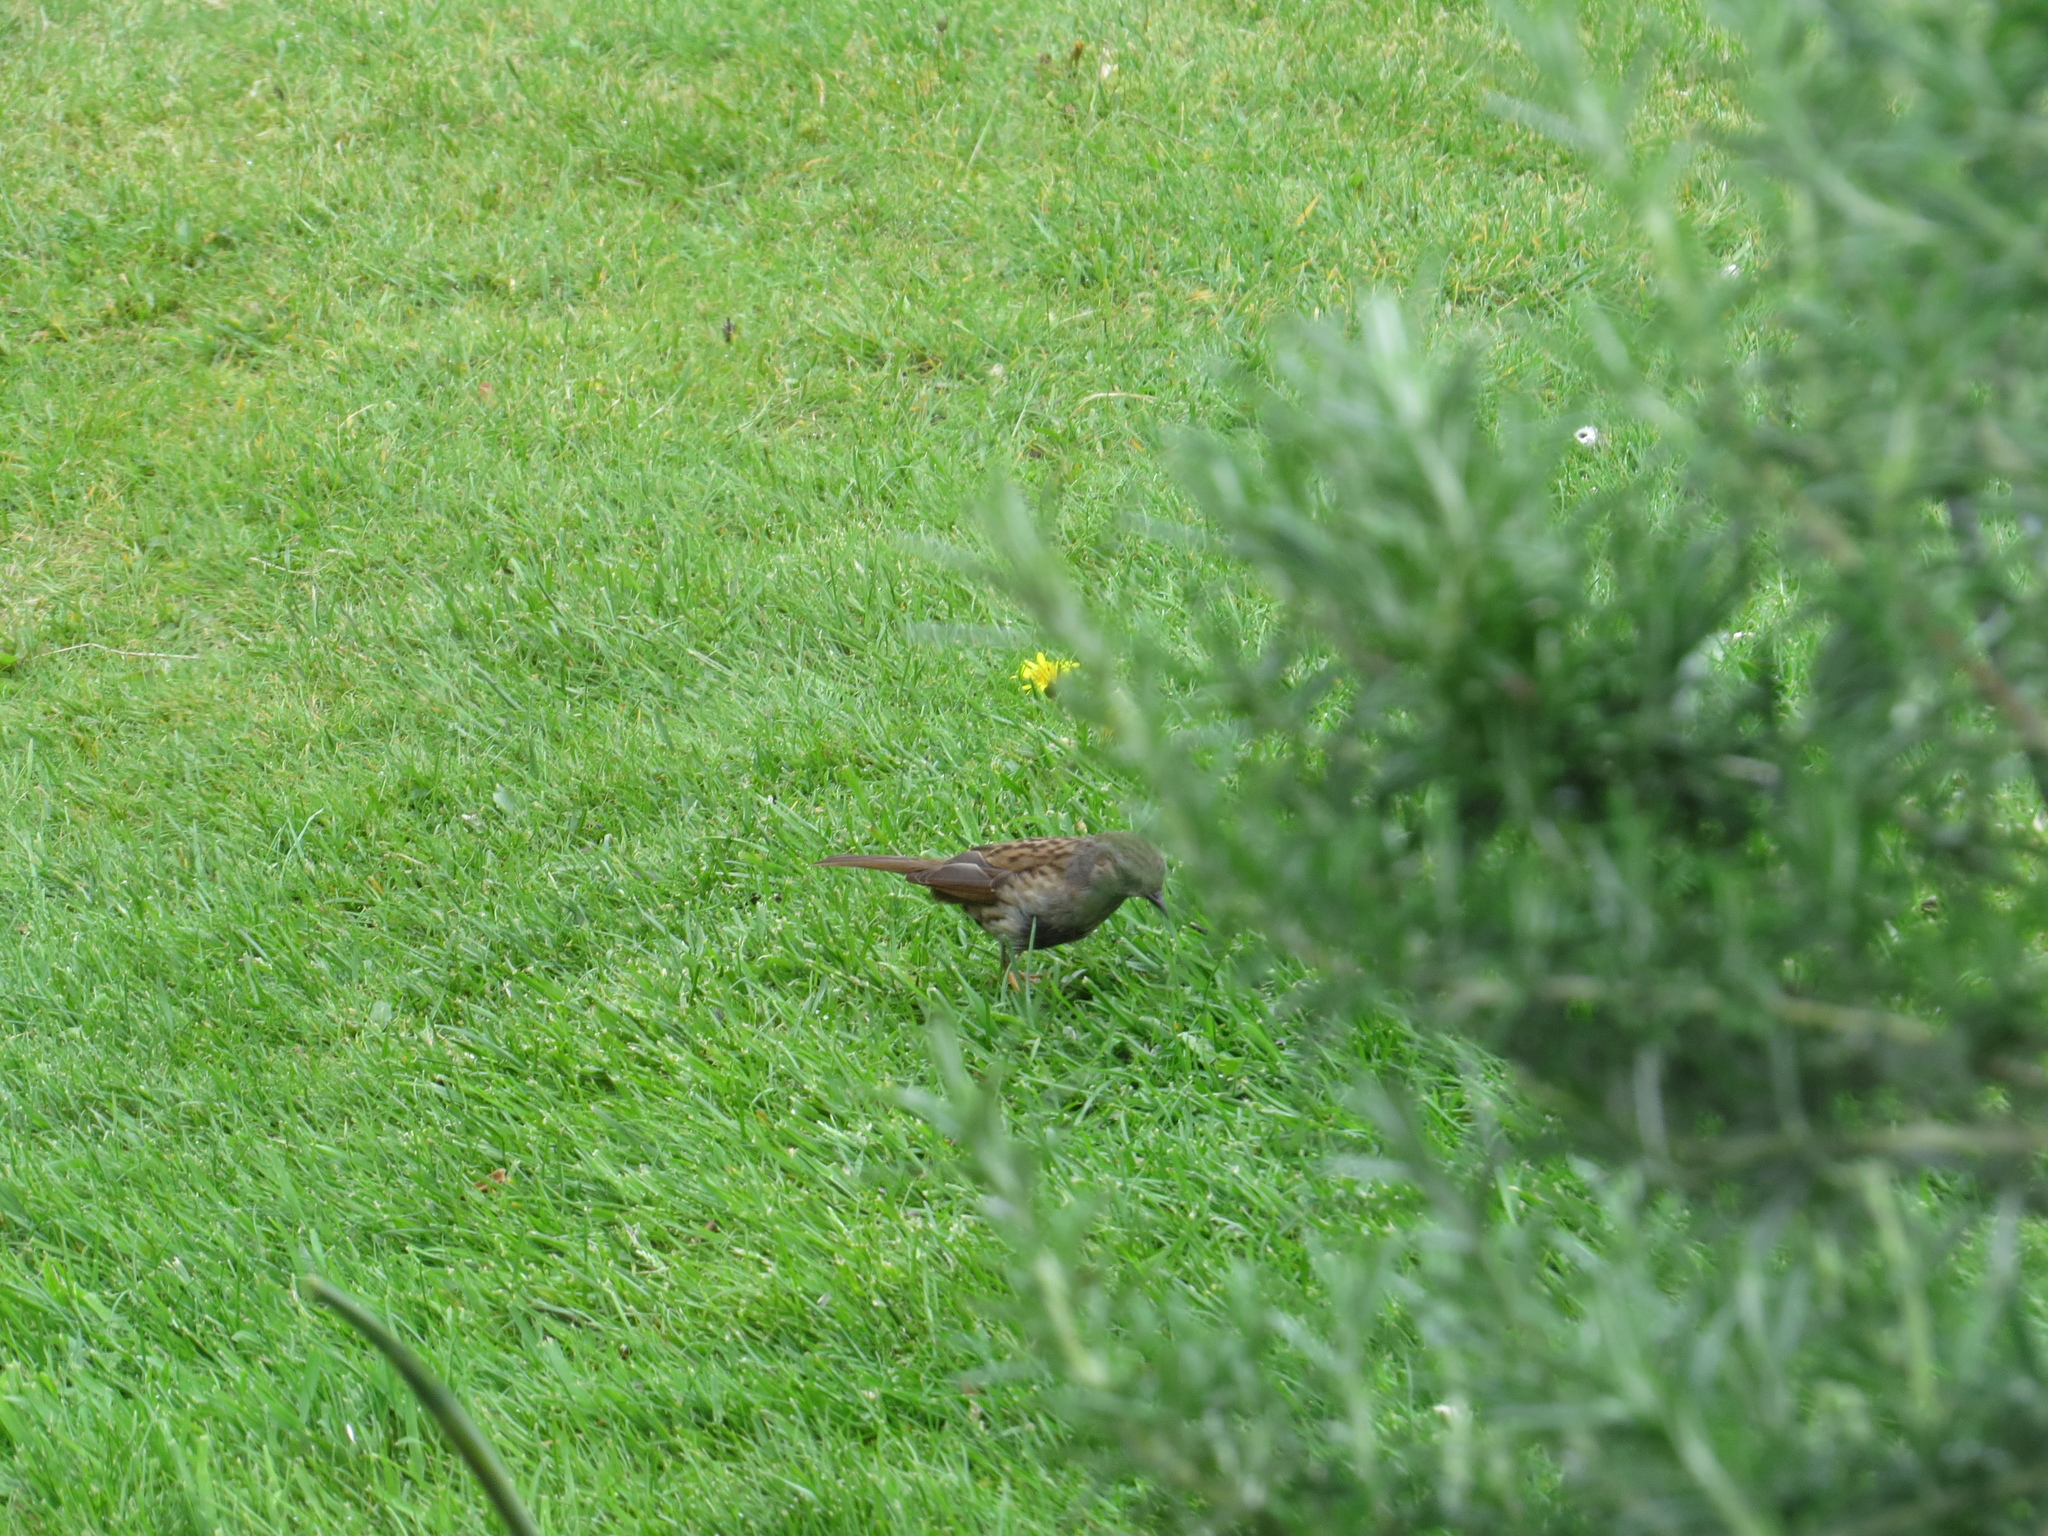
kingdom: Animalia
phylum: Chordata
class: Aves
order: Passeriformes
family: Prunellidae
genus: Prunella
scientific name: Prunella modularis
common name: Dunnock
